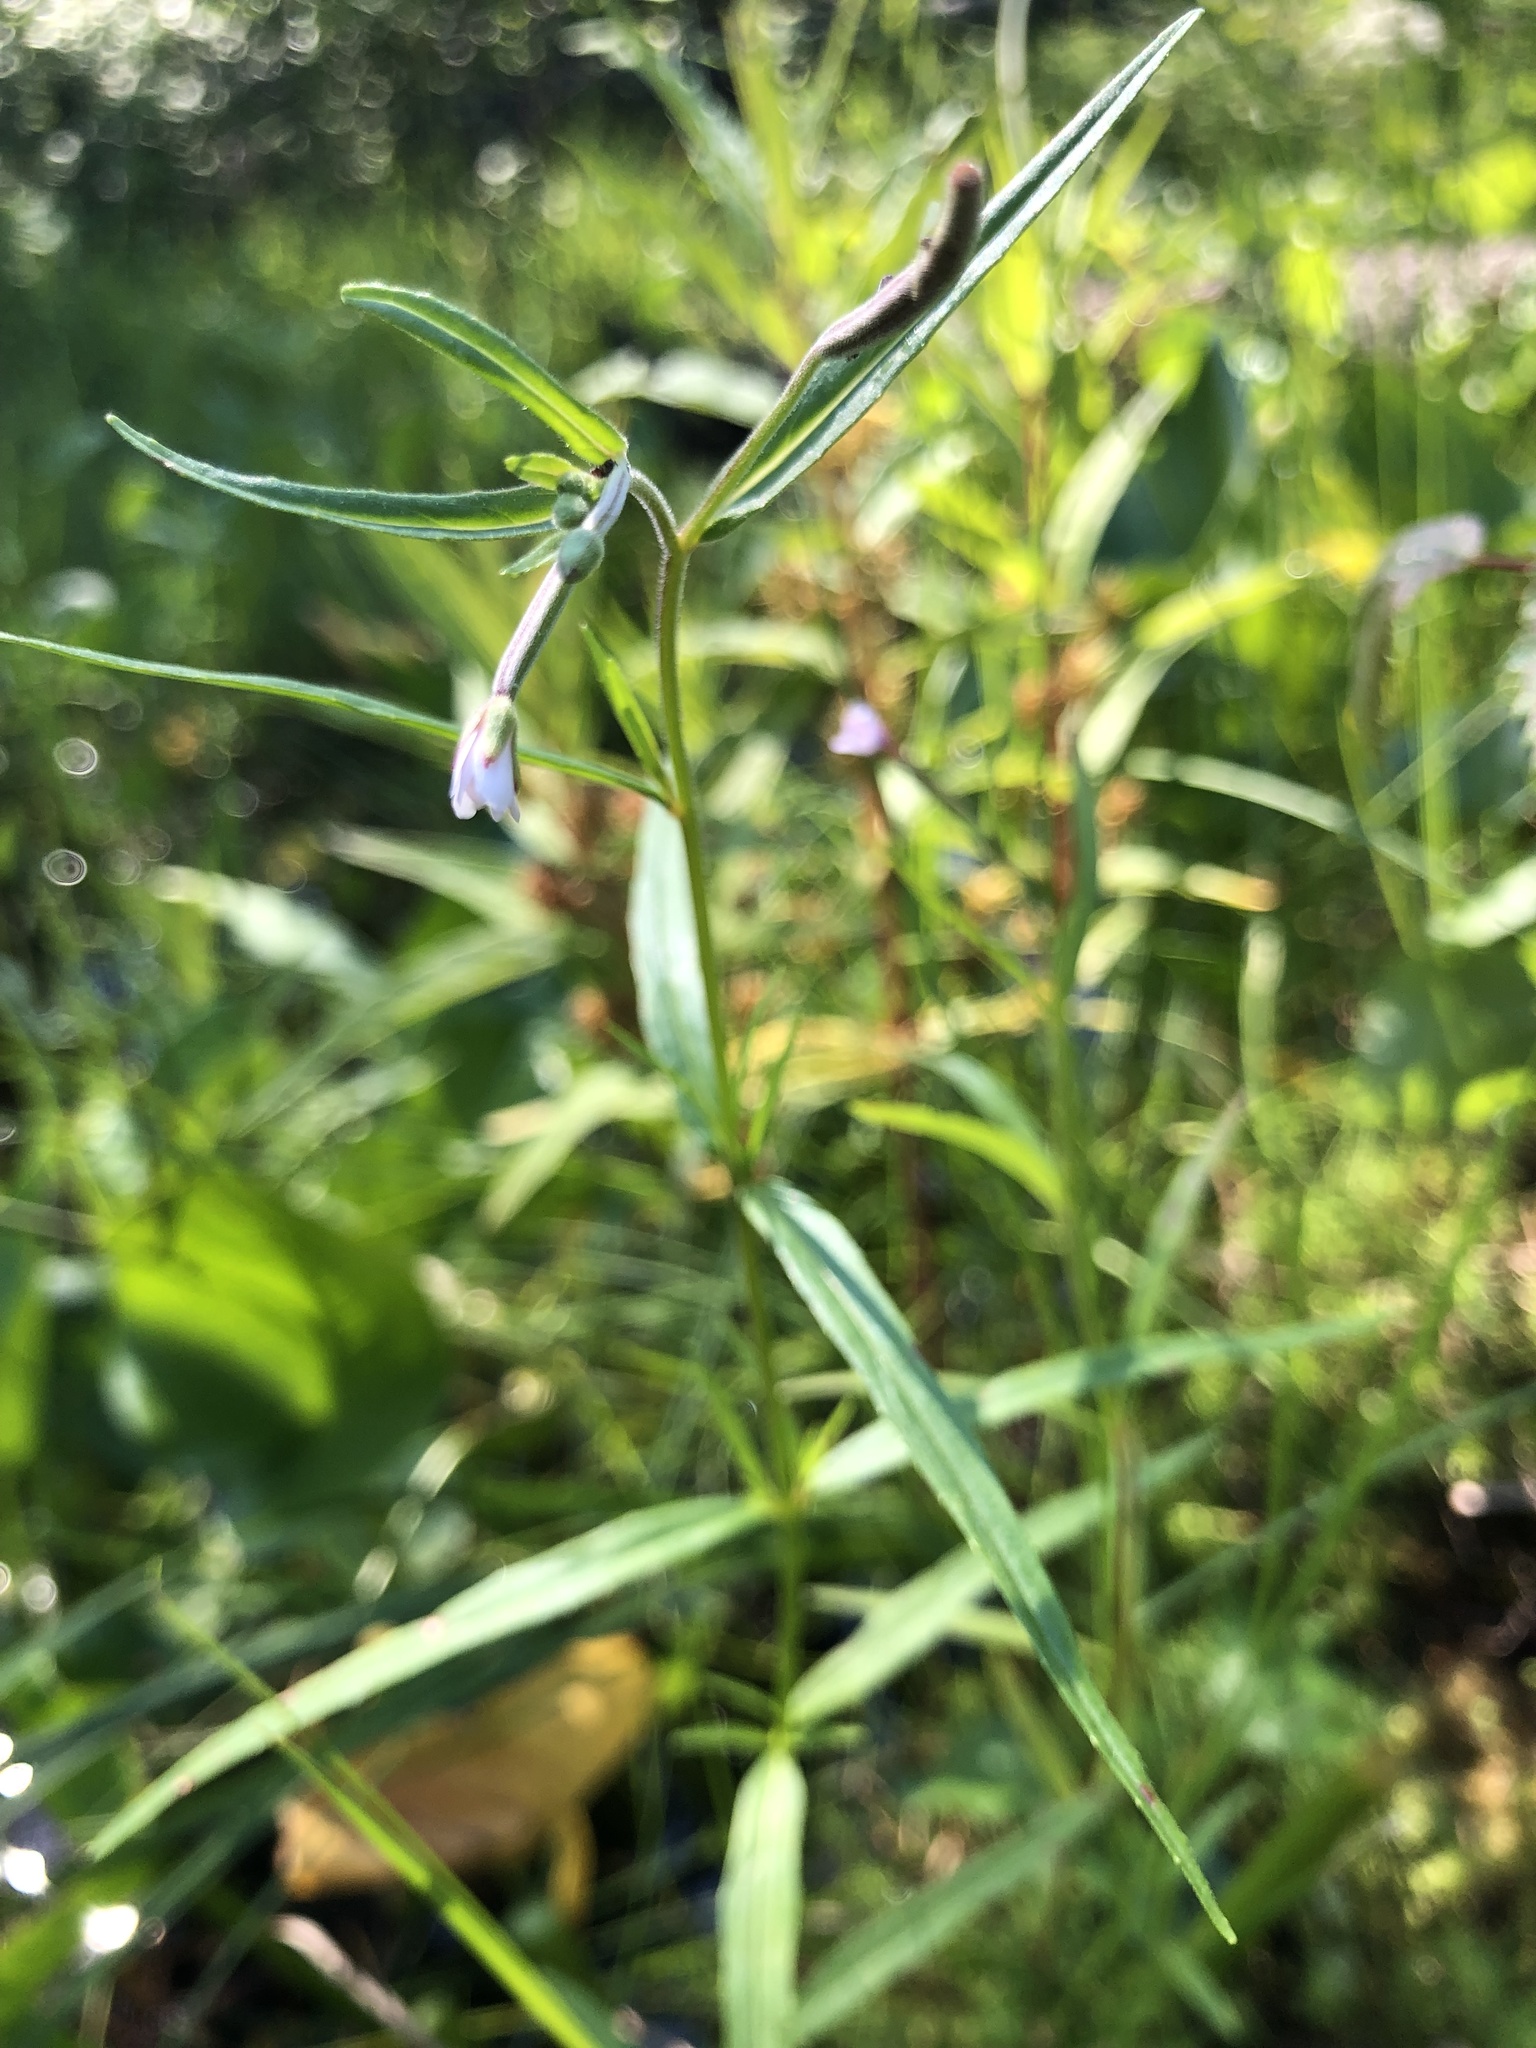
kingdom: Plantae
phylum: Tracheophyta
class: Magnoliopsida
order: Myrtales
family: Onagraceae
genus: Epilobium
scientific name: Epilobium palustre
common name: Marsh willowherb
